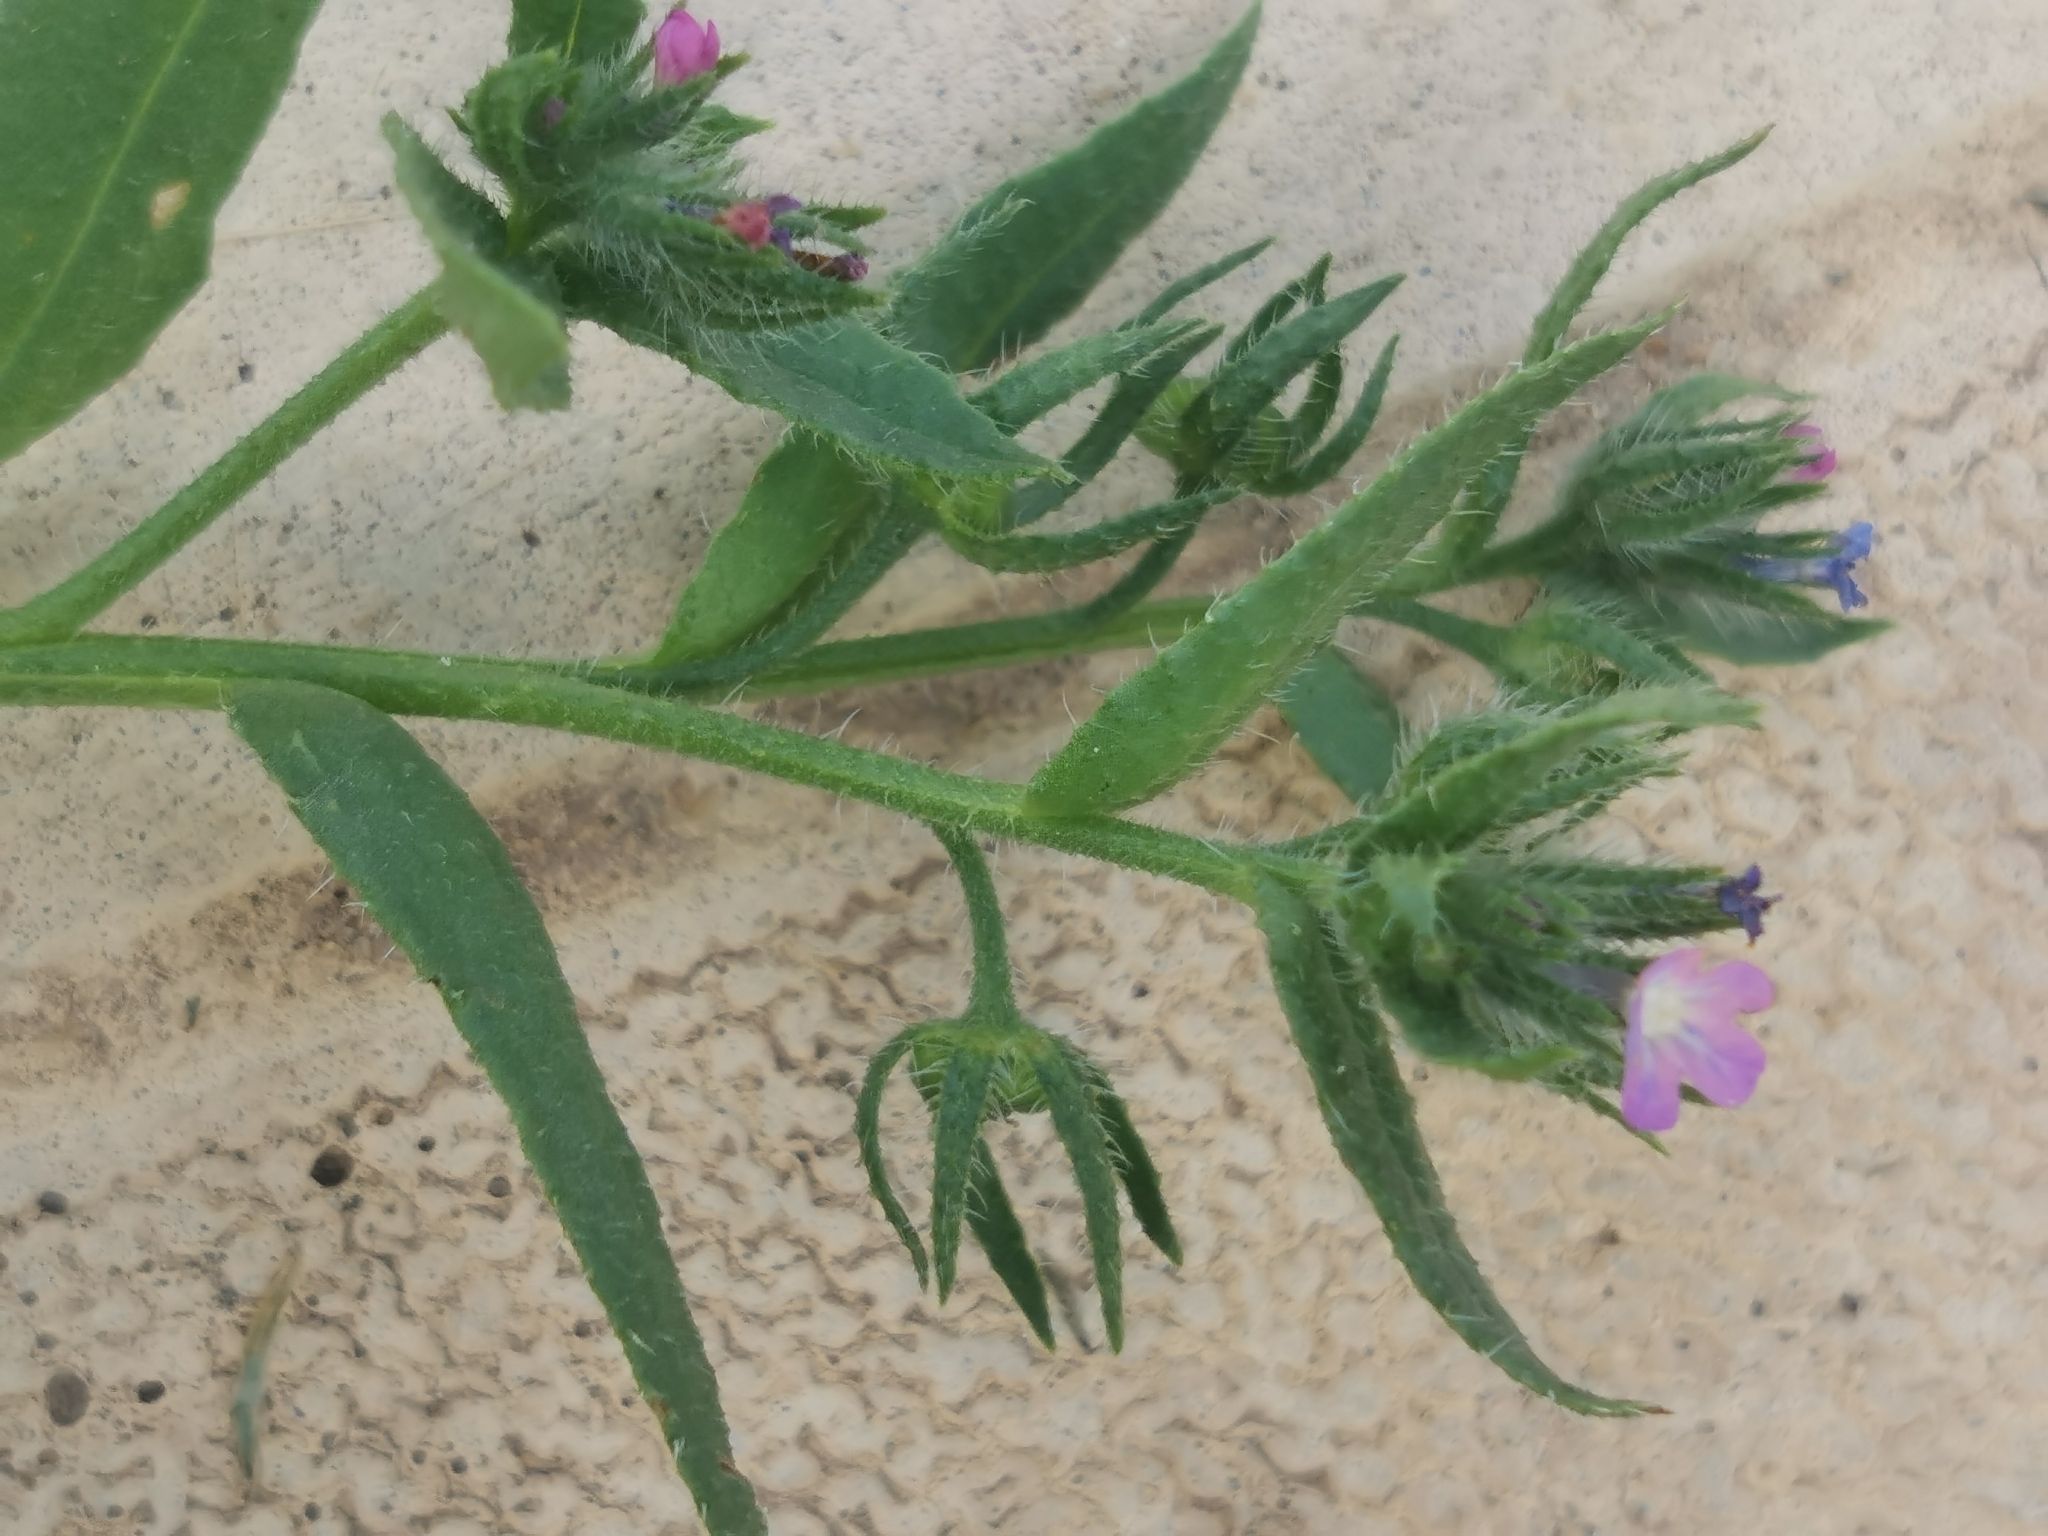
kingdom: Plantae
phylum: Tracheophyta
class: Magnoliopsida
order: Boraginales
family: Boraginaceae
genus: Lycopsis
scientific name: Lycopsis arvensis
